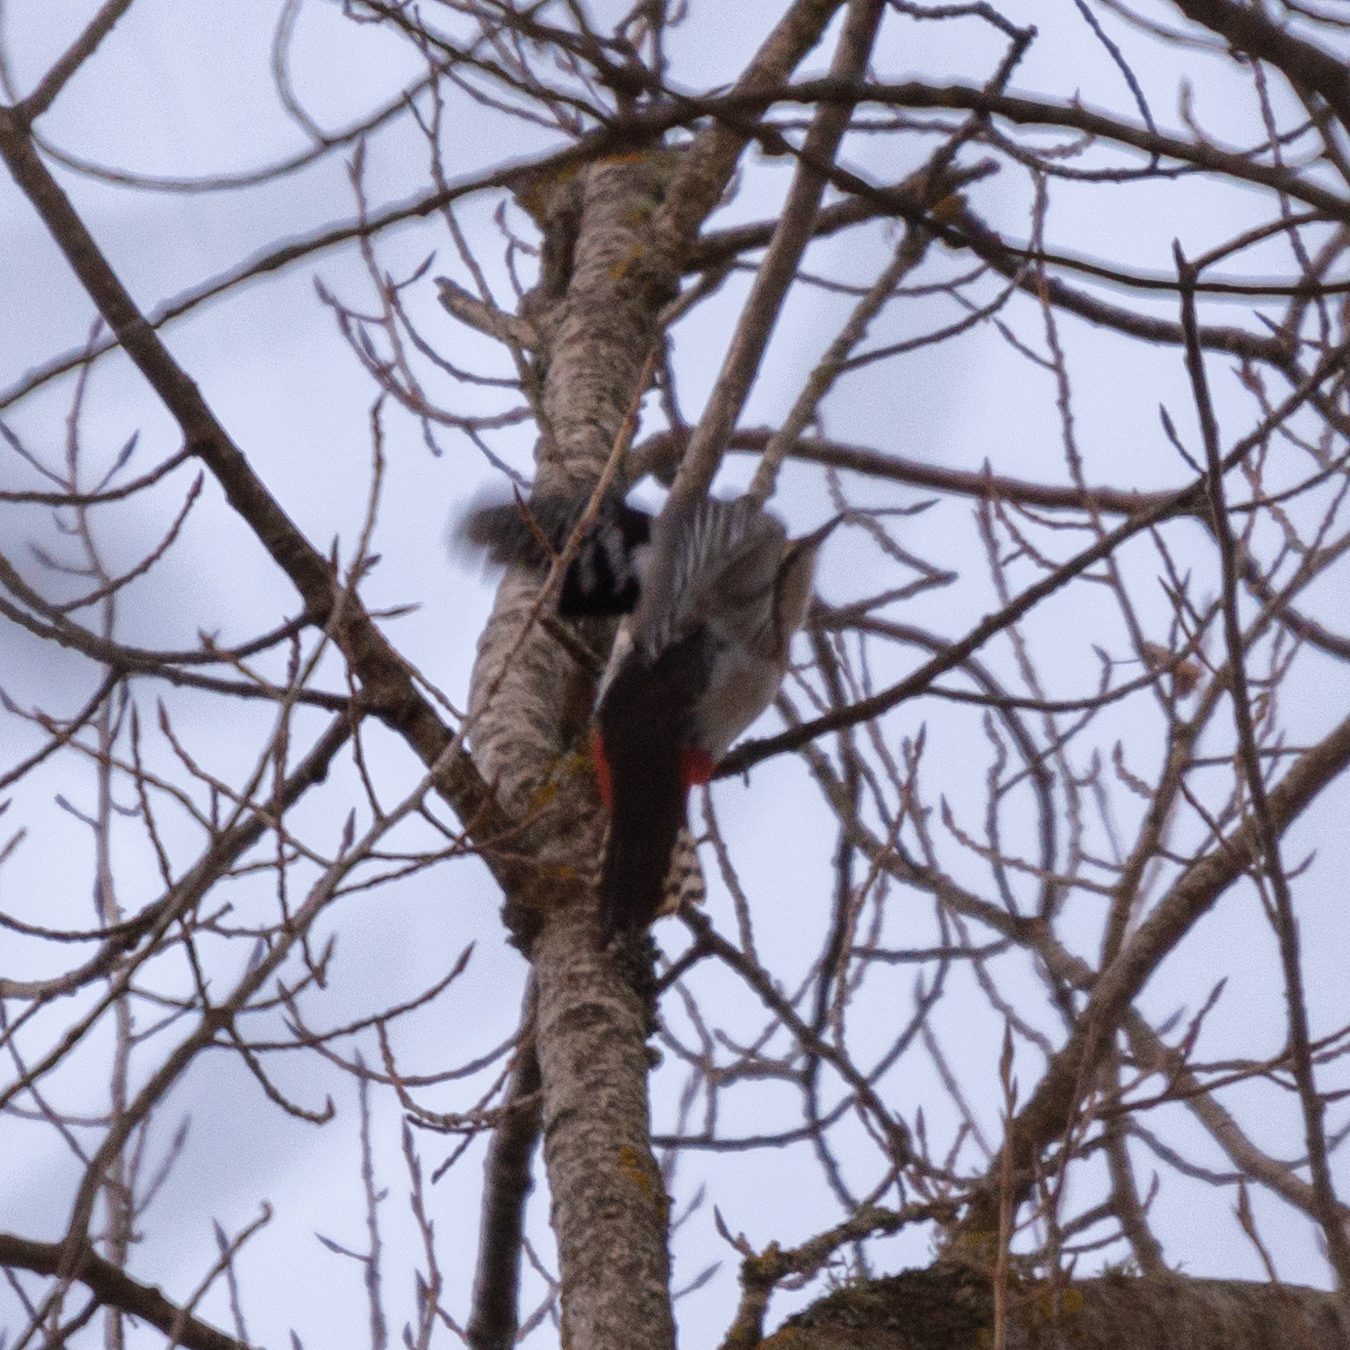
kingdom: Animalia
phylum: Chordata
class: Aves
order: Piciformes
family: Picidae
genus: Dendrocopos
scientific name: Dendrocopos major
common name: Great spotted woodpecker
